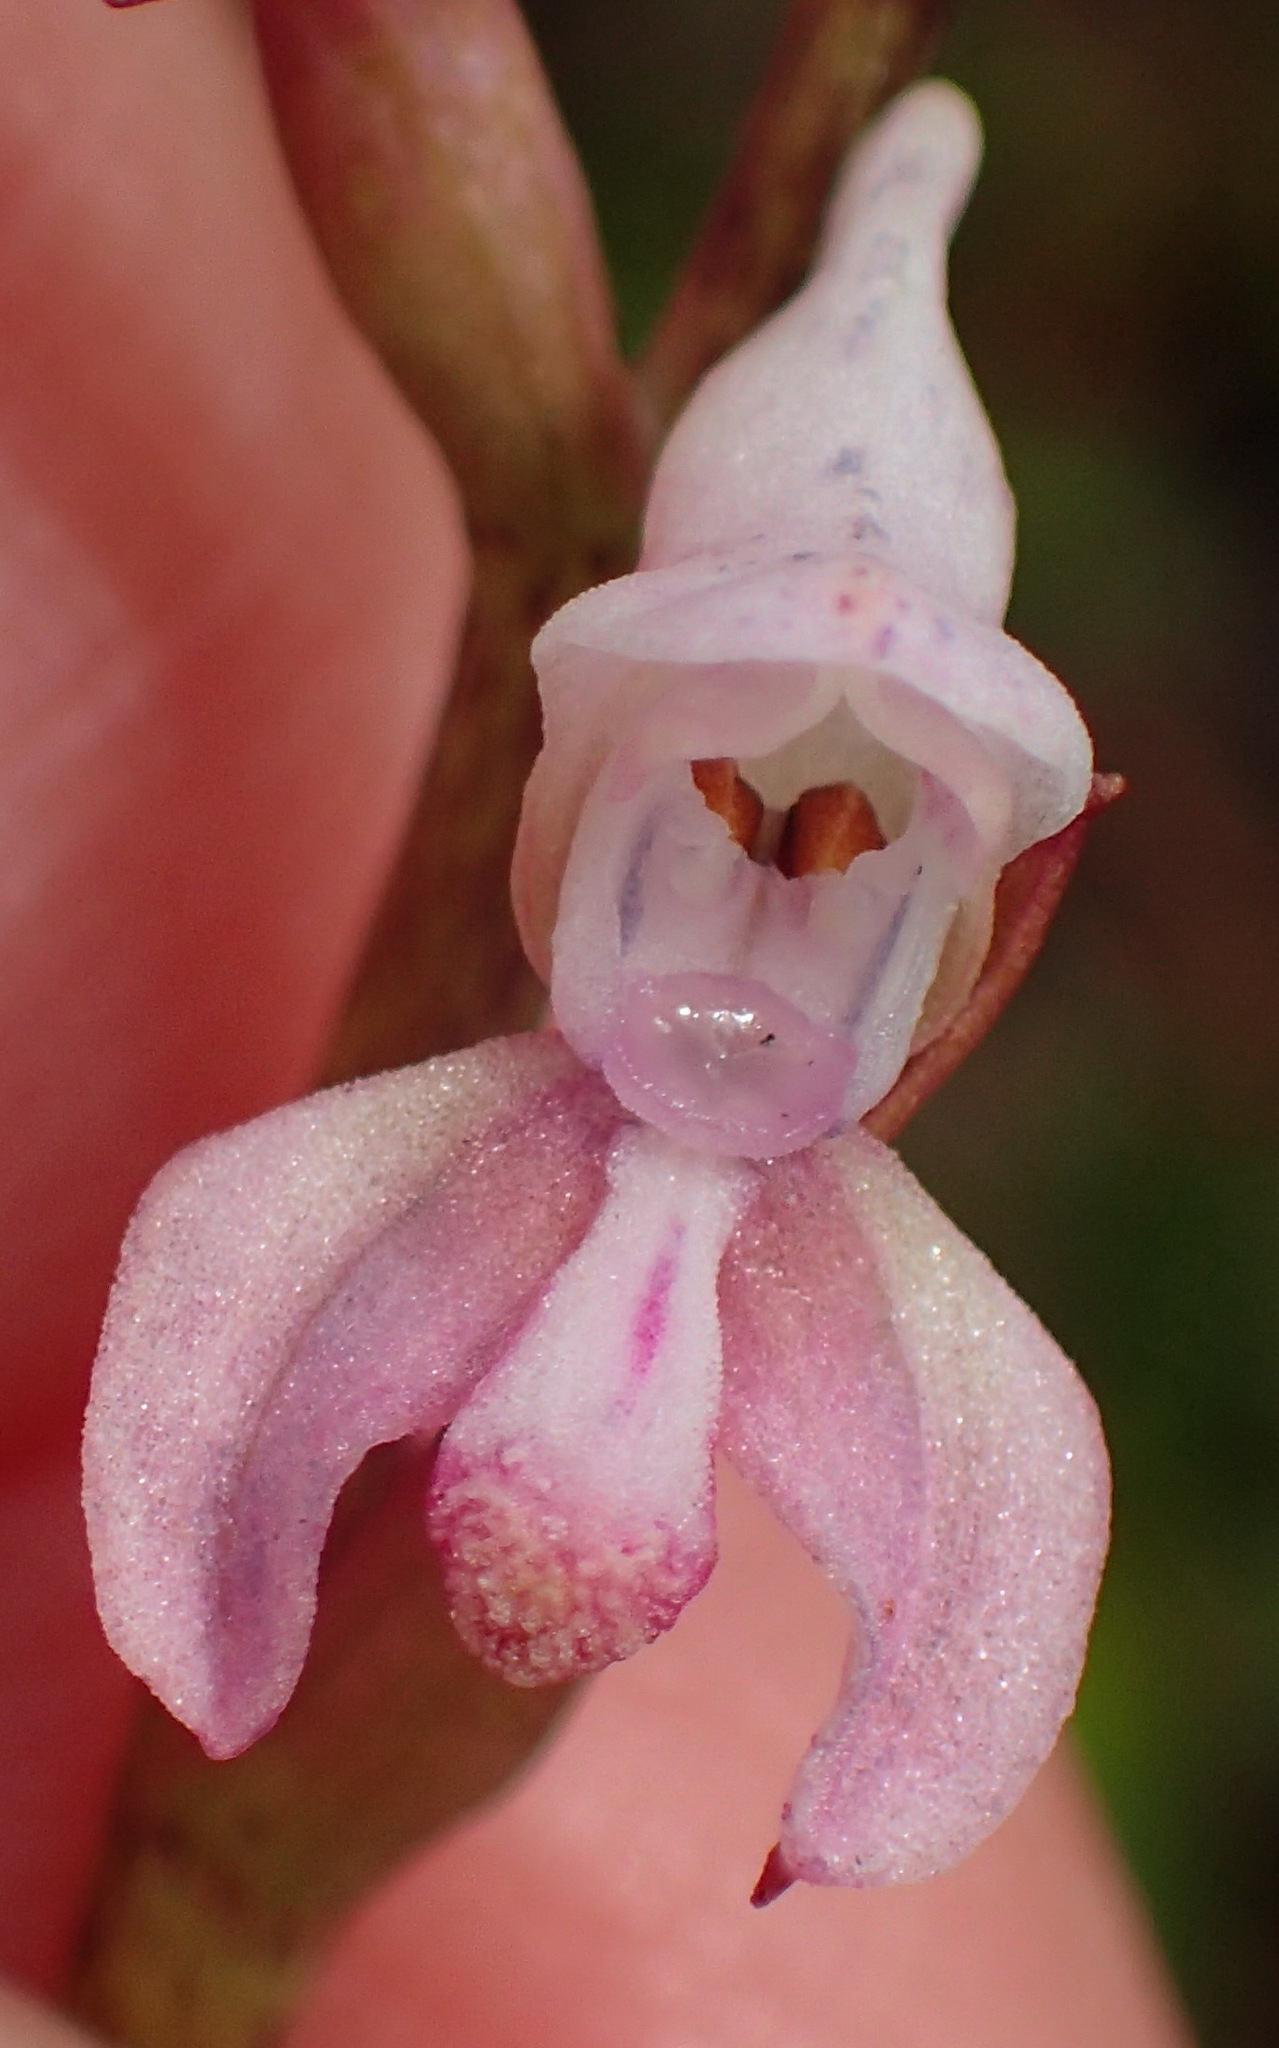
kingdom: Plantae
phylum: Tracheophyta
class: Liliopsida
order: Asparagales
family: Orchidaceae
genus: Disa
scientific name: Disa aconitoides
